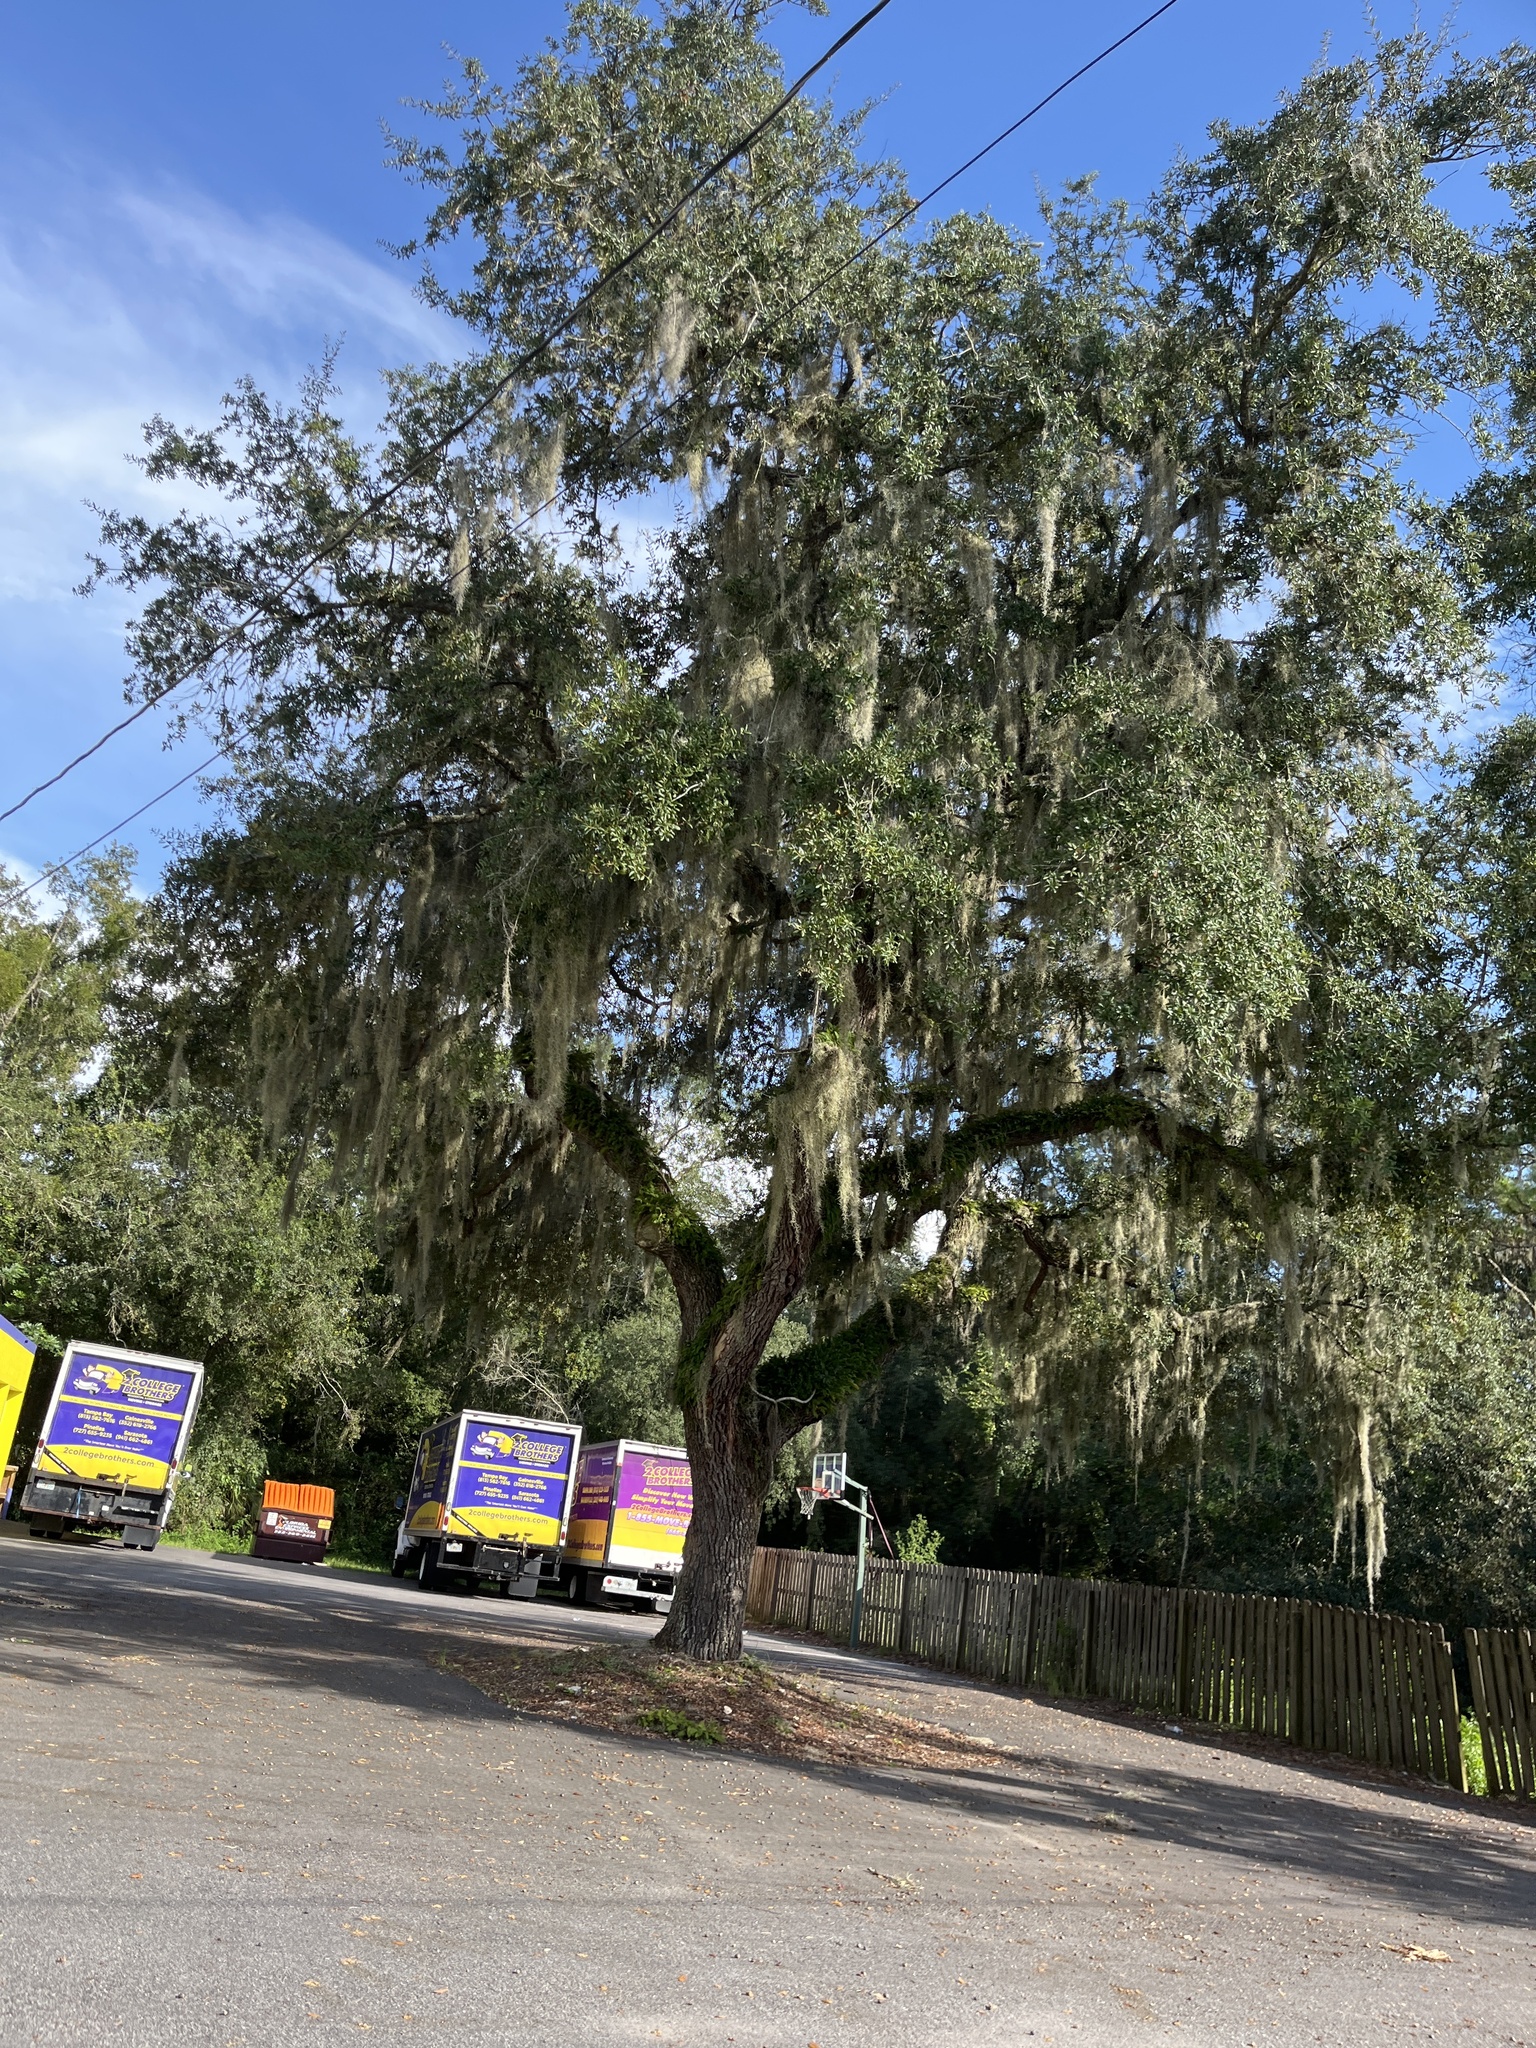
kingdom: Plantae
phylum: Tracheophyta
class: Liliopsida
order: Poales
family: Bromeliaceae
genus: Tillandsia
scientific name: Tillandsia usneoides
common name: Spanish moss
